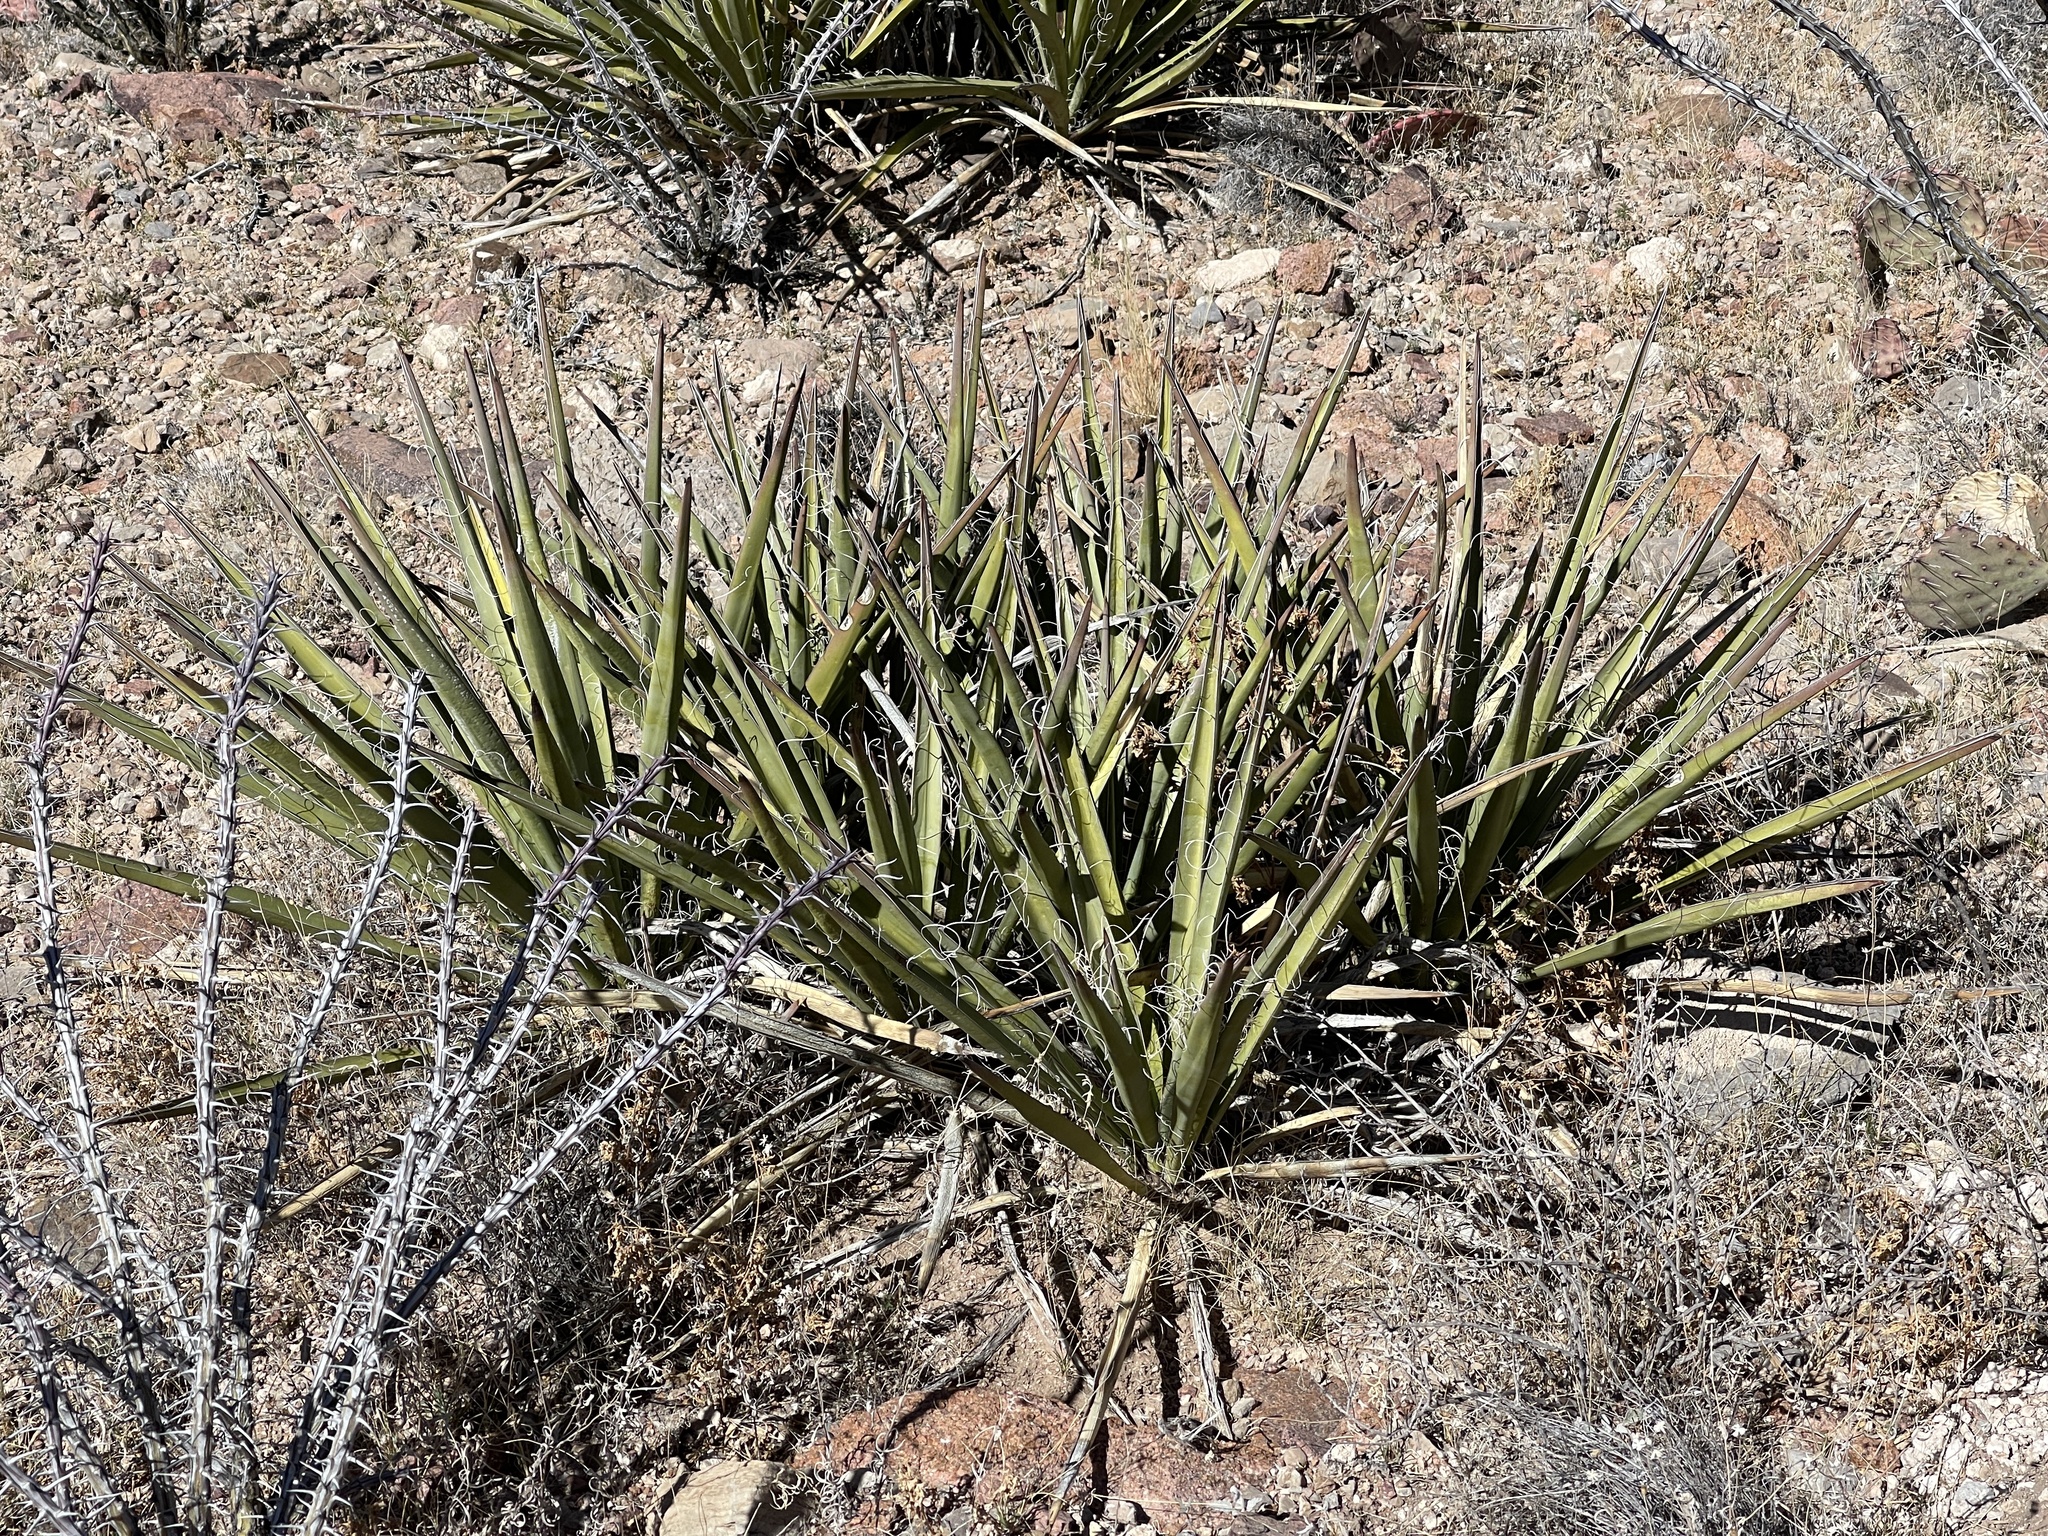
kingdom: Plantae
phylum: Tracheophyta
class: Liliopsida
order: Asparagales
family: Asparagaceae
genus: Yucca
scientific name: Yucca baccata
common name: Banana yucca
